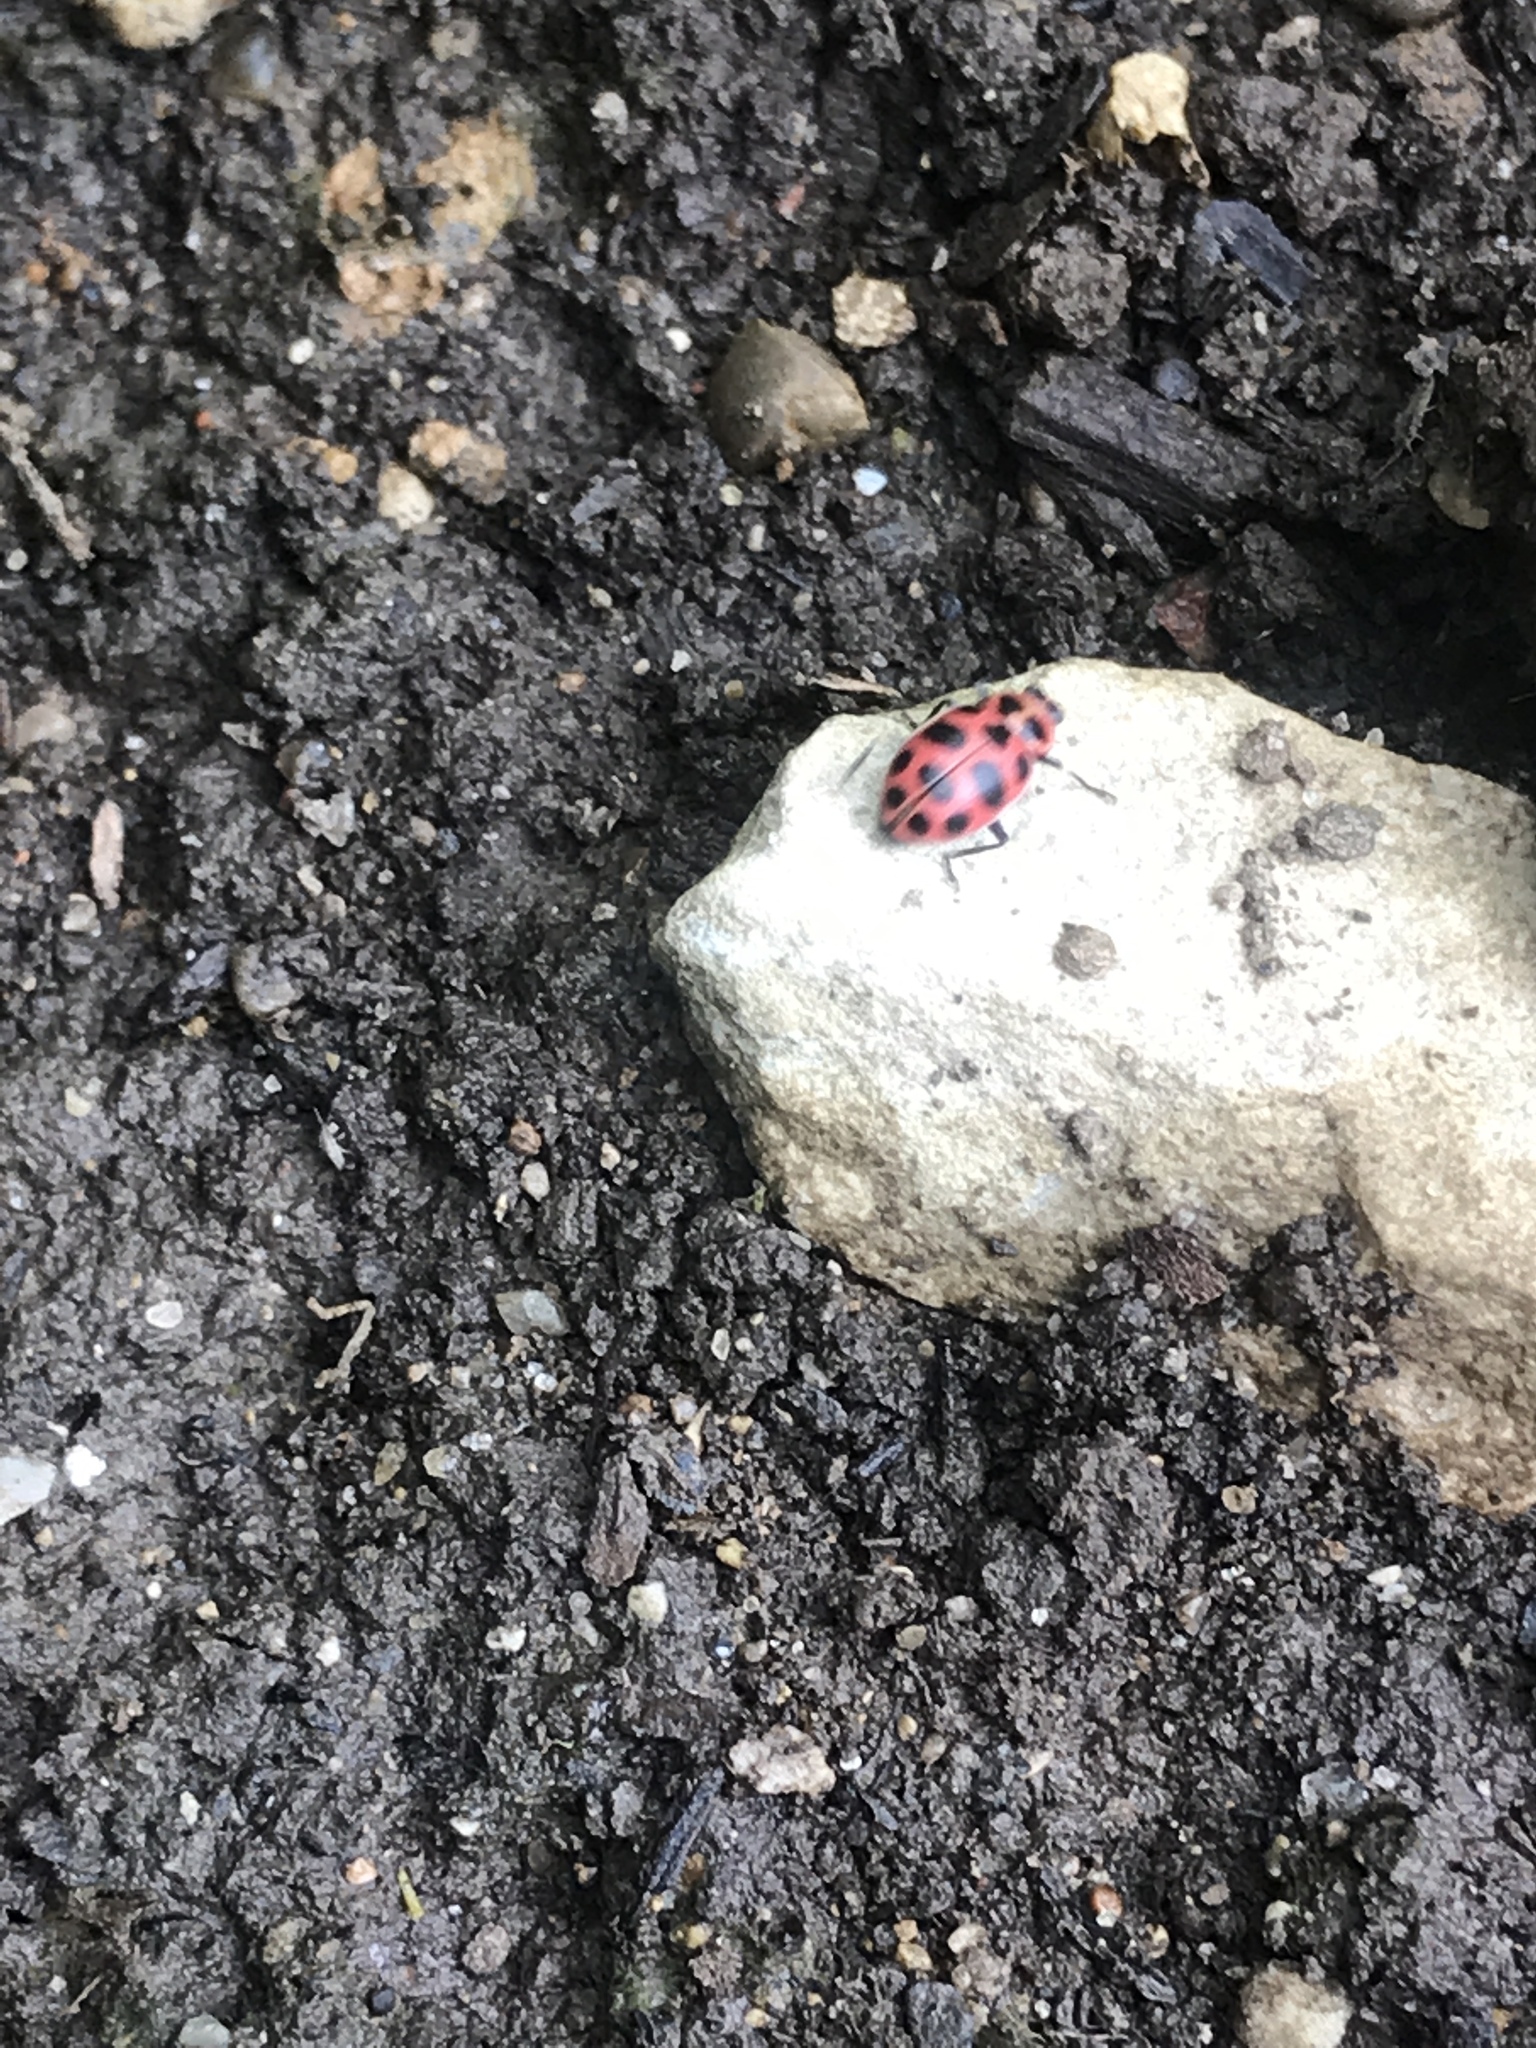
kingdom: Animalia
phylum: Arthropoda
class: Insecta
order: Coleoptera
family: Coccinellidae
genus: Coleomegilla
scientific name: Coleomegilla maculata
